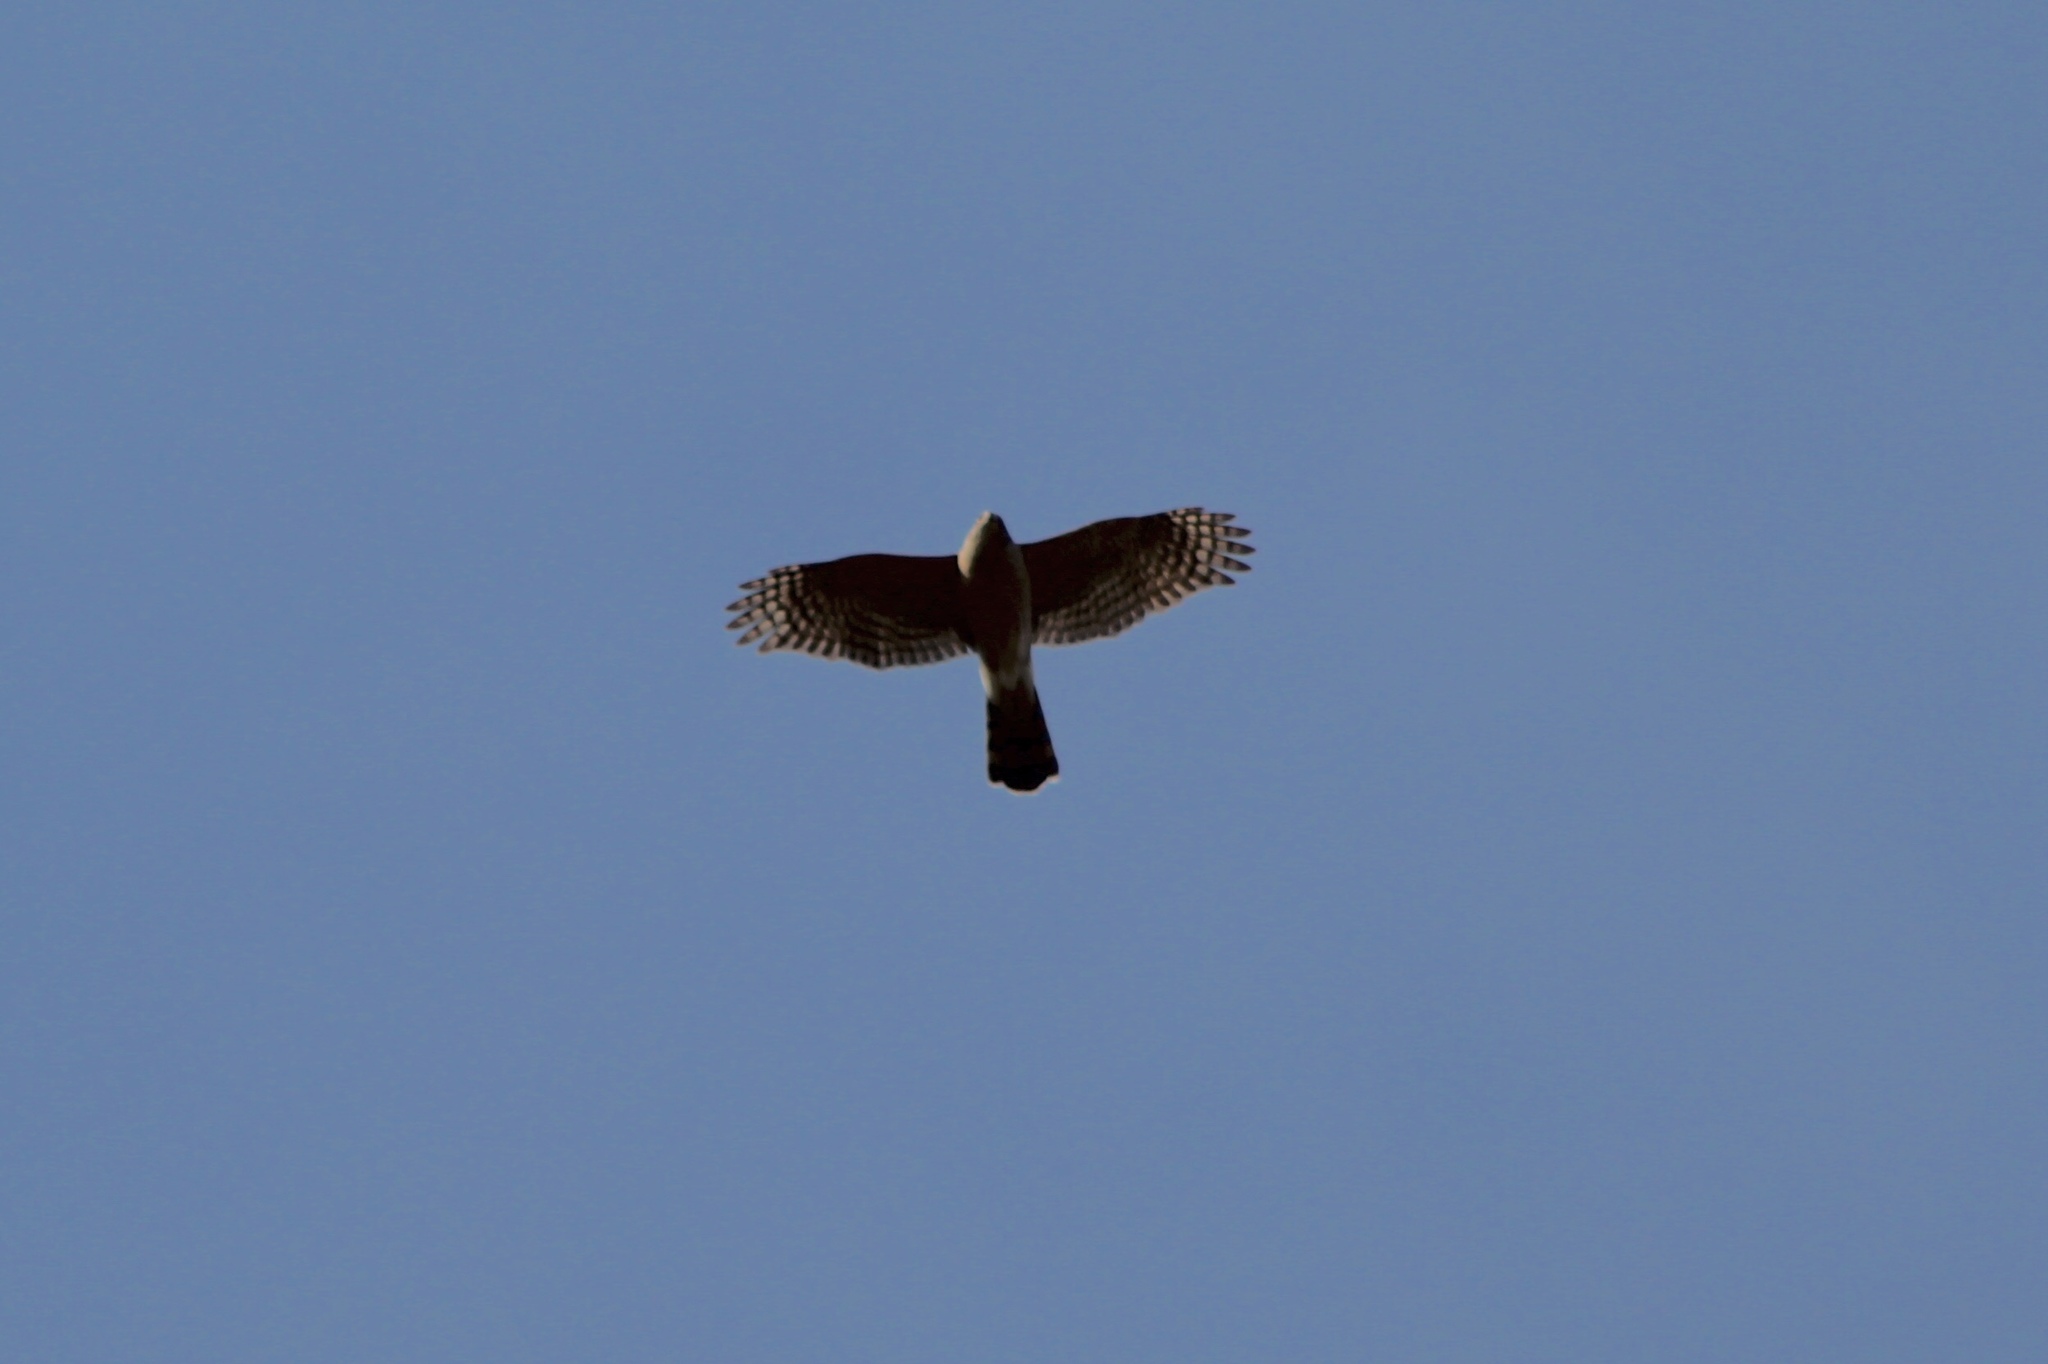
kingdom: Animalia
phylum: Chordata
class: Aves
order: Accipitriformes
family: Accipitridae
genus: Accipiter
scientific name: Accipiter cooperii
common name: Cooper's hawk
